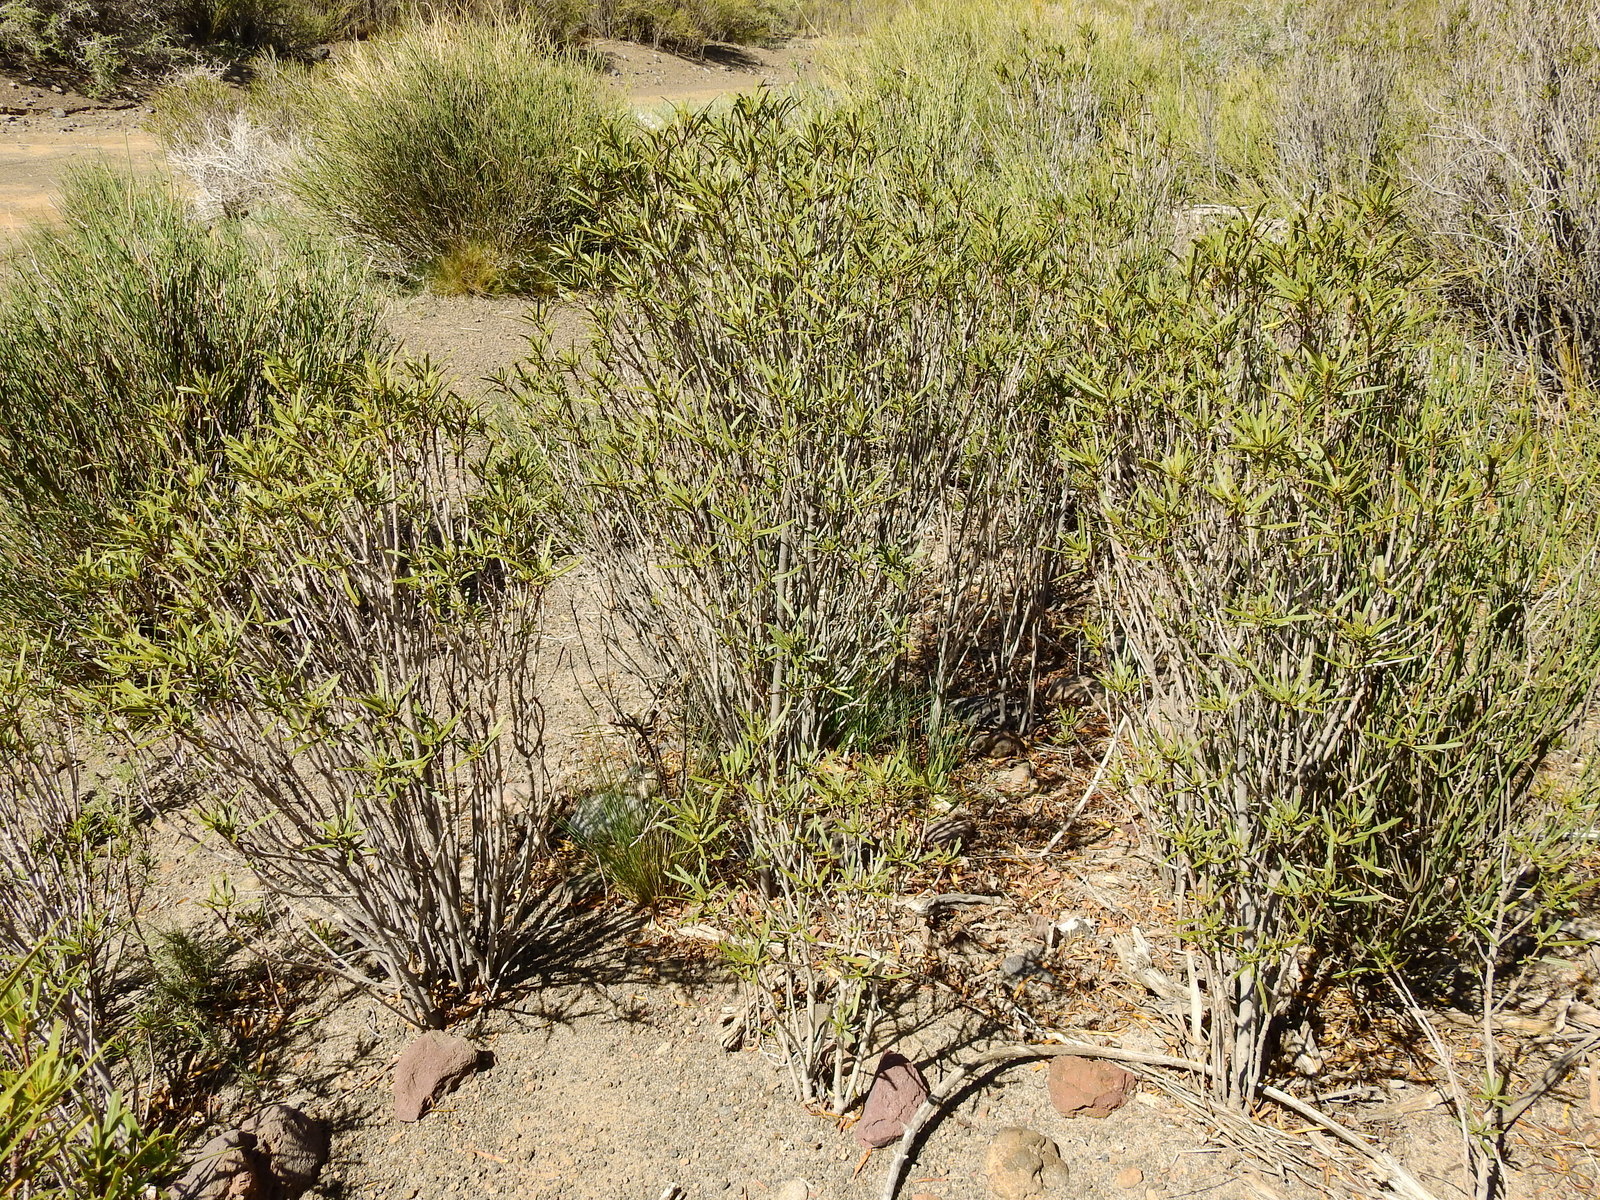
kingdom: Plantae
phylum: Tracheophyta
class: Magnoliopsida
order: Malpighiales
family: Euphorbiaceae
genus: Colliguaja
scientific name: Colliguaja integerrima
